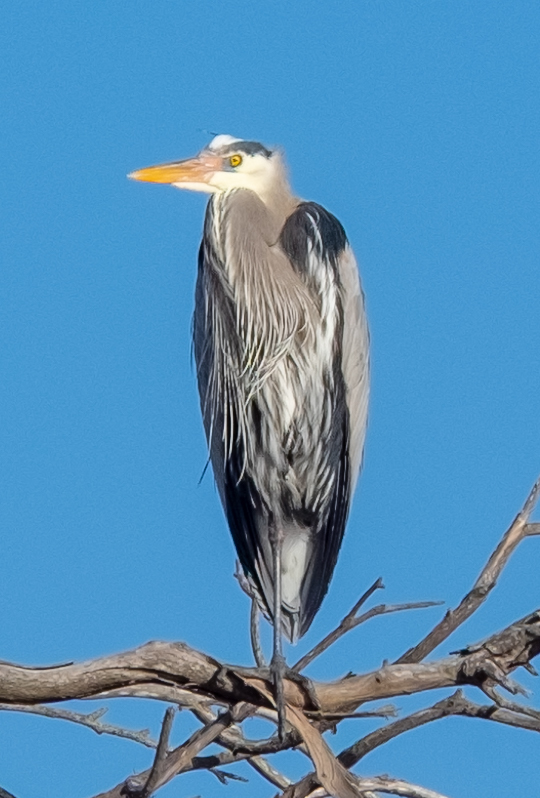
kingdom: Animalia
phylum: Chordata
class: Aves
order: Pelecaniformes
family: Ardeidae
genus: Ardea
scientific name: Ardea herodias
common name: Great blue heron
